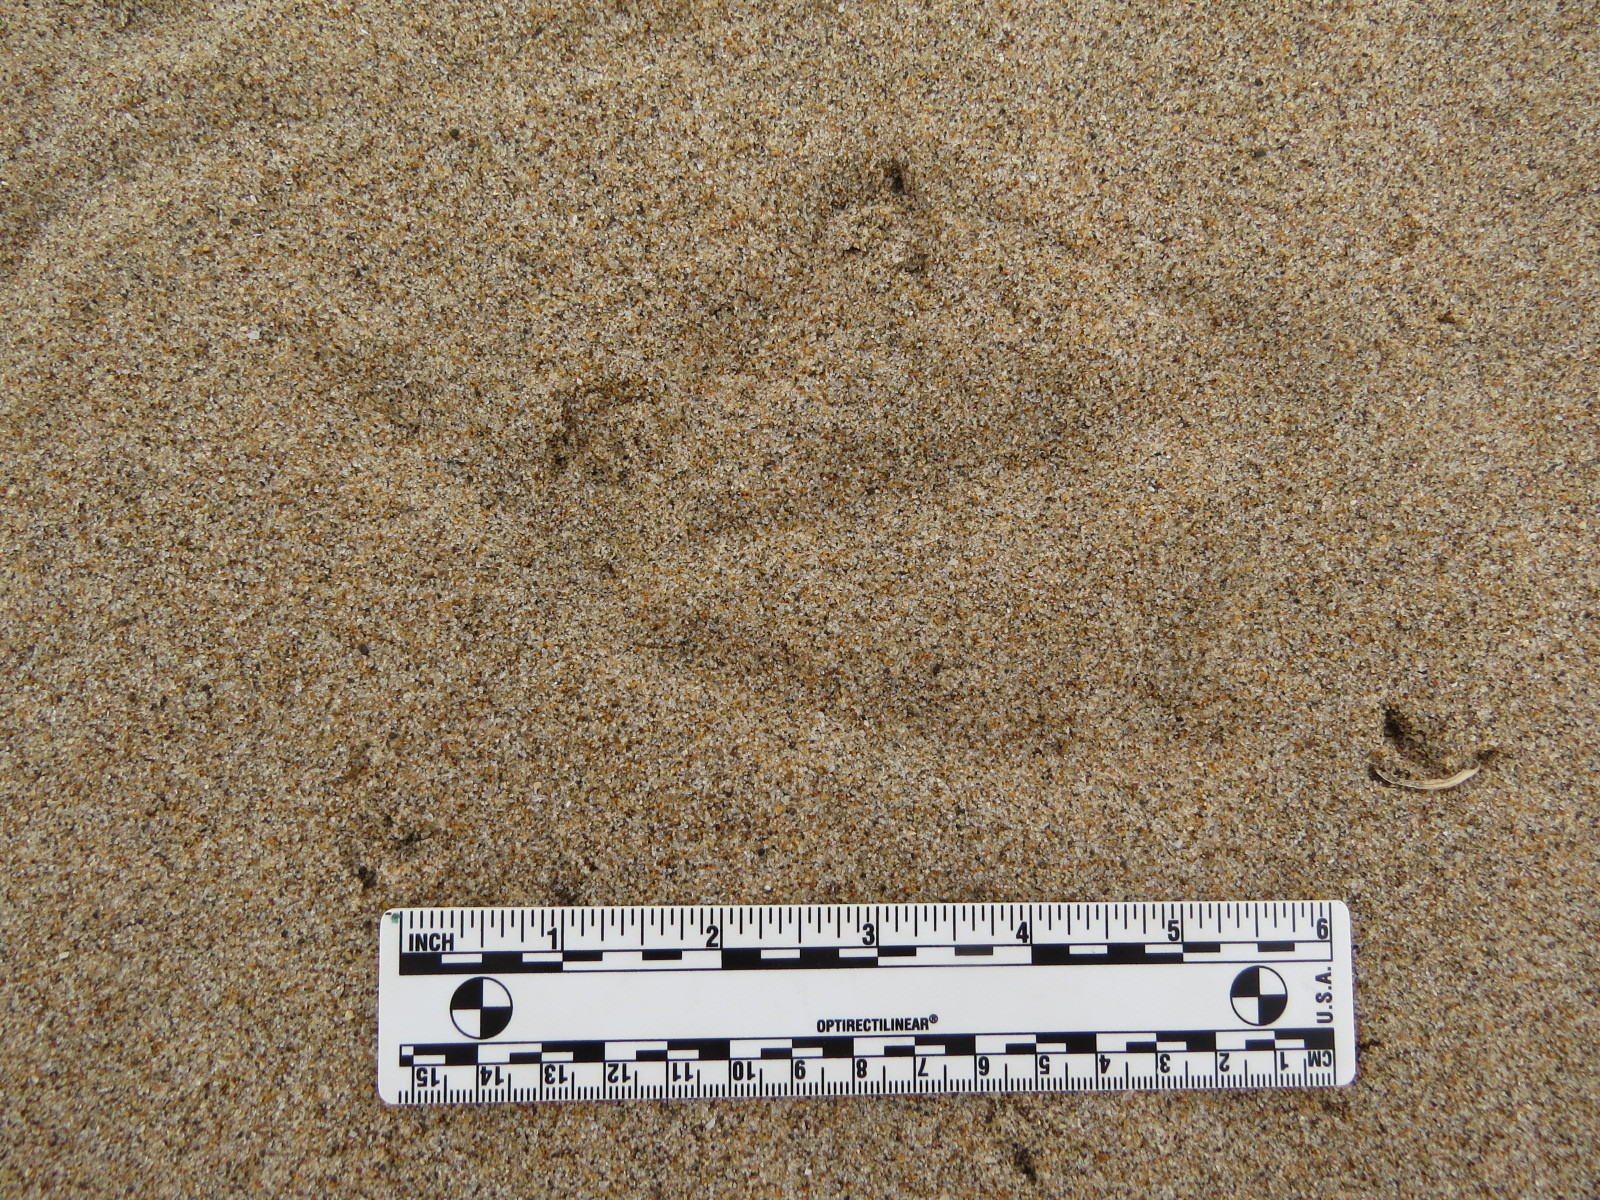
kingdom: Animalia
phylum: Chordata
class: Aves
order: Pelecaniformes
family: Pelecanidae
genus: Pelecanus
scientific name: Pelecanus occidentalis
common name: Brown pelican
